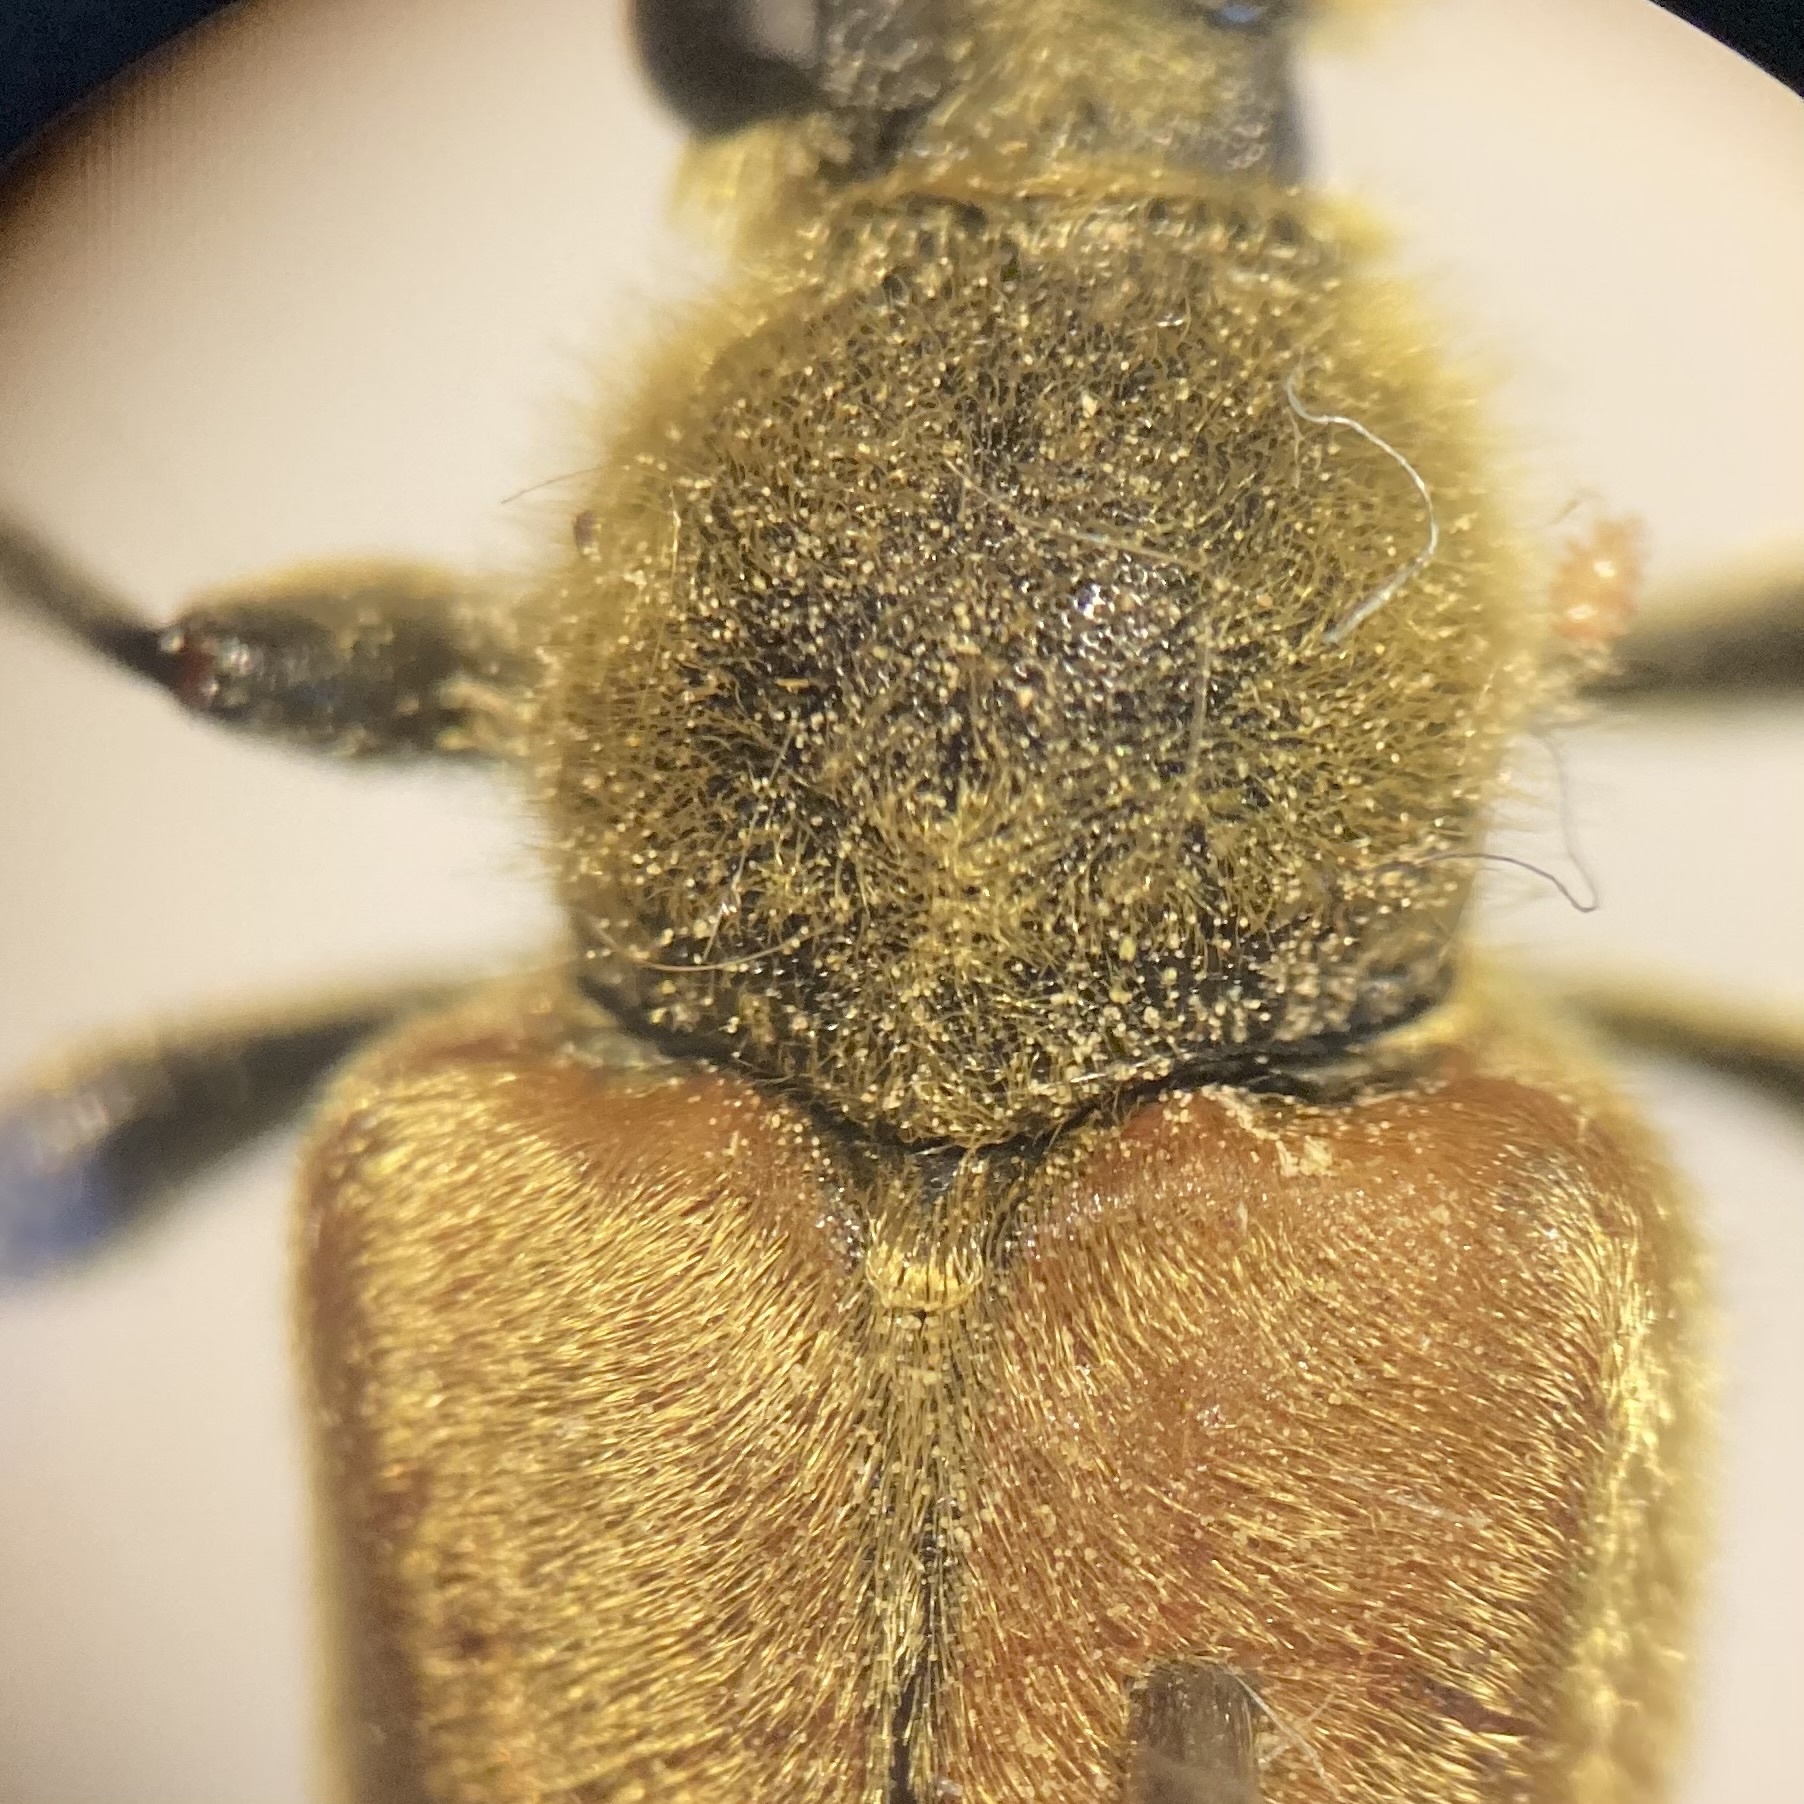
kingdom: Animalia
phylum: Arthropoda
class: Insecta
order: Coleoptera
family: Cerambycidae
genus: Cosmosalia
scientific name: Cosmosalia chrysocoma
